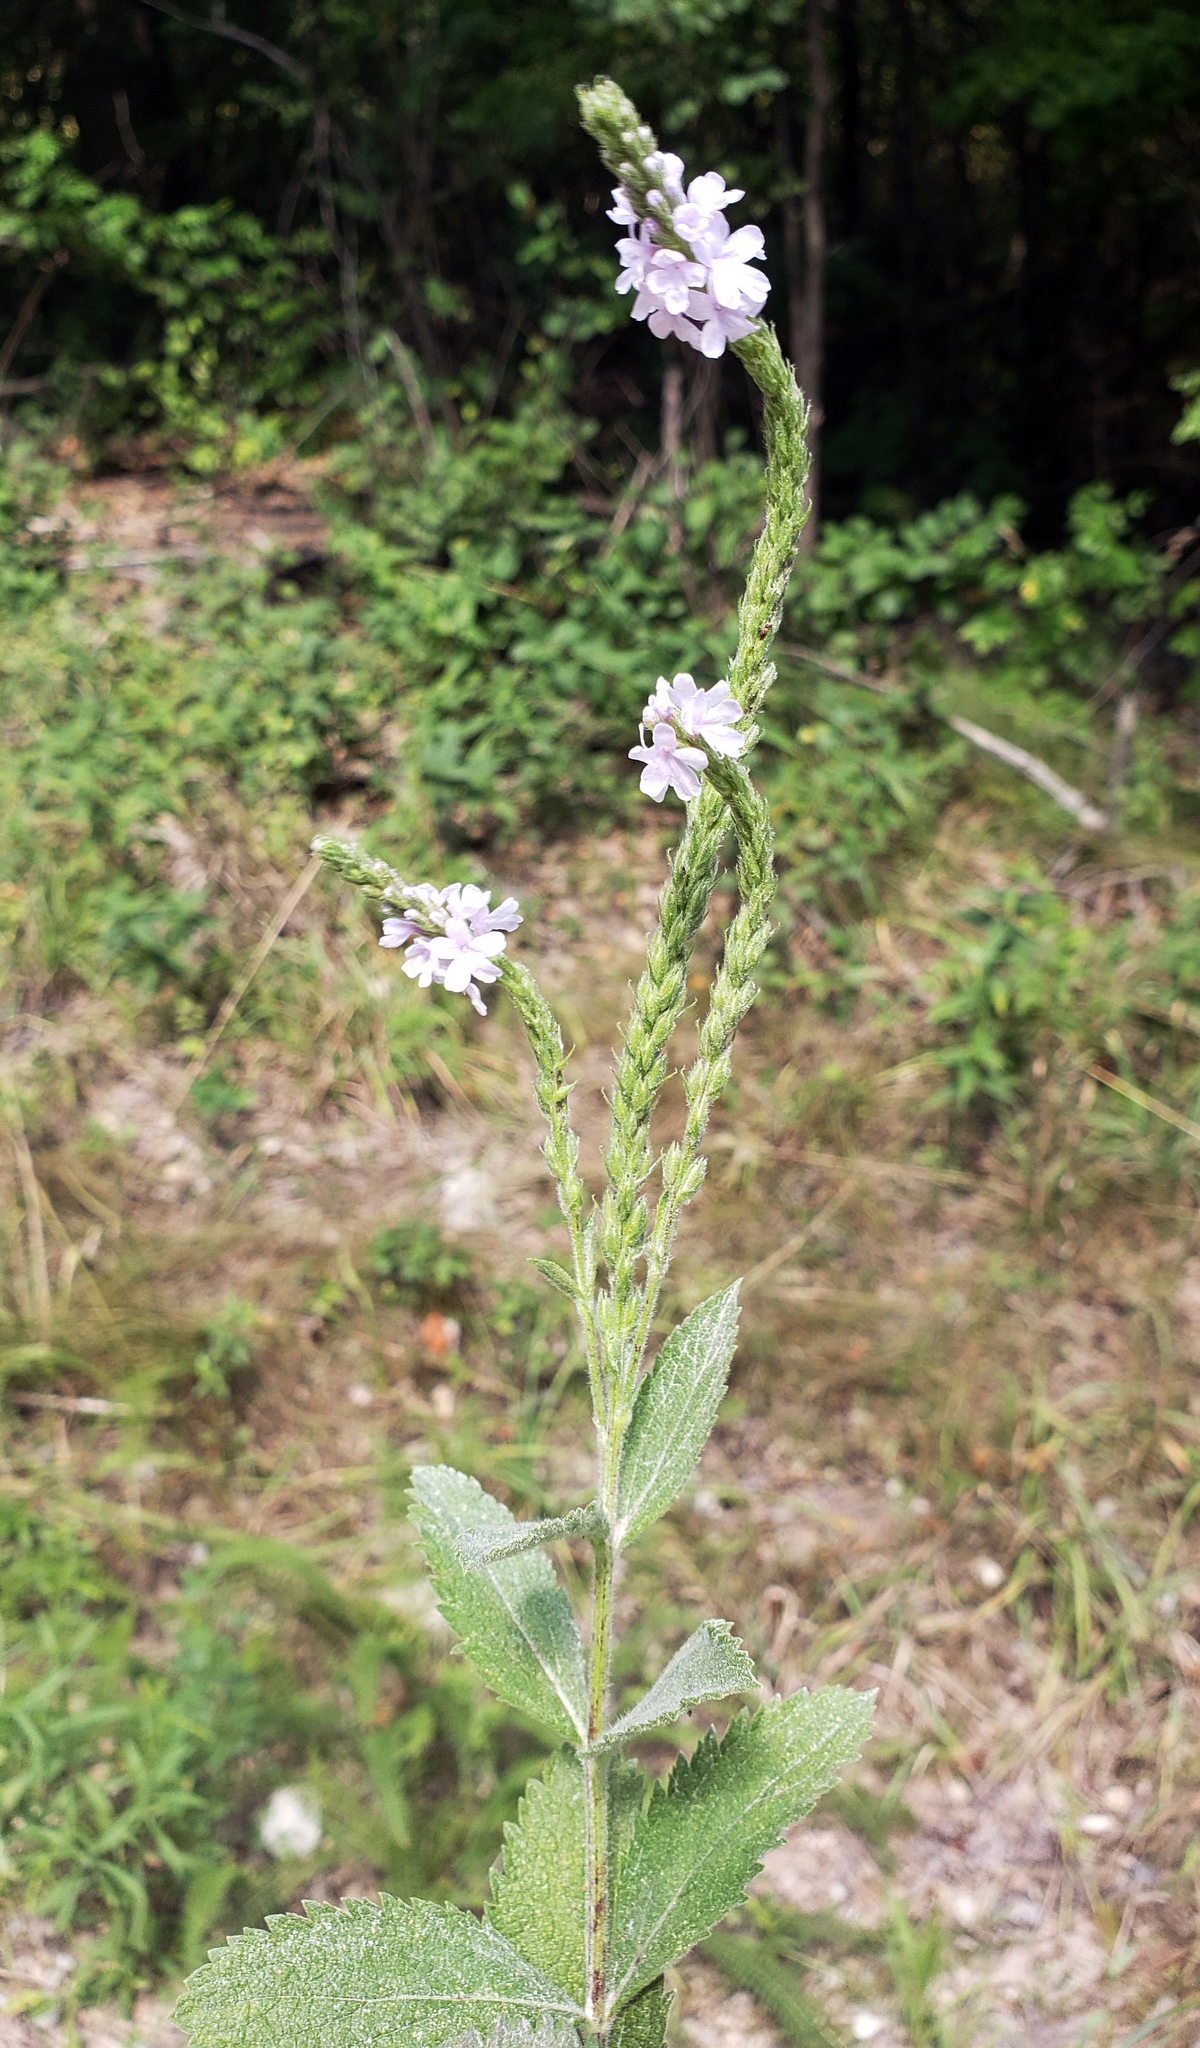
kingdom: Plantae
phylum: Tracheophyta
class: Magnoliopsida
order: Lamiales
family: Verbenaceae
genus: Verbena
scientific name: Verbena stricta
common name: Hoary vervain
